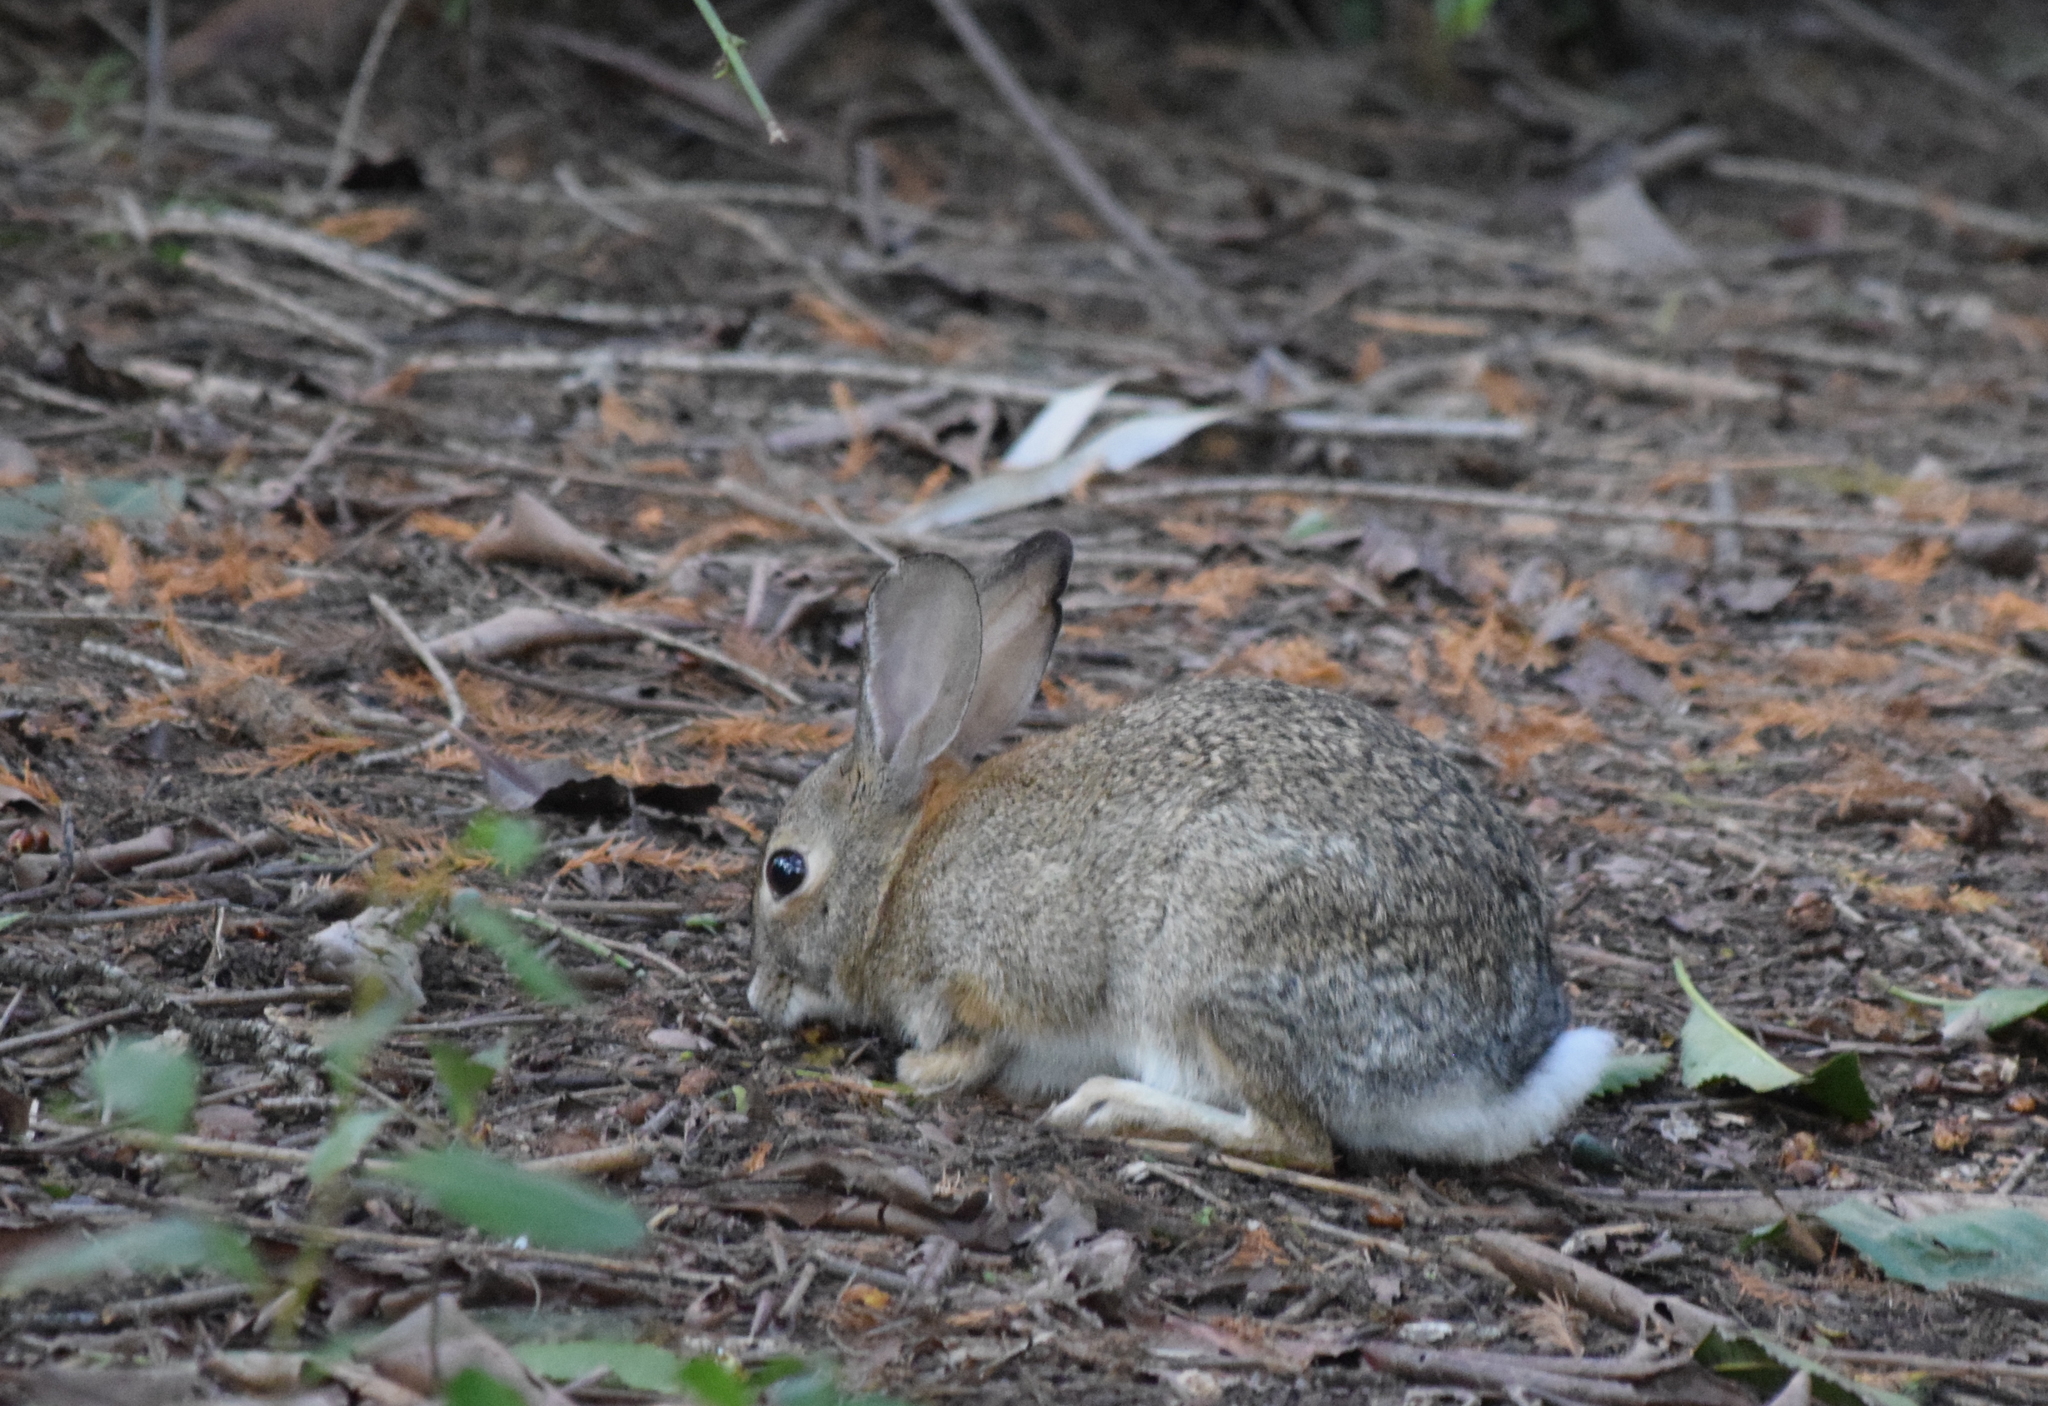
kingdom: Animalia
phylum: Chordata
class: Mammalia
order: Lagomorpha
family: Leporidae
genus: Sylvilagus
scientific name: Sylvilagus audubonii
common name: Desert cottontail
